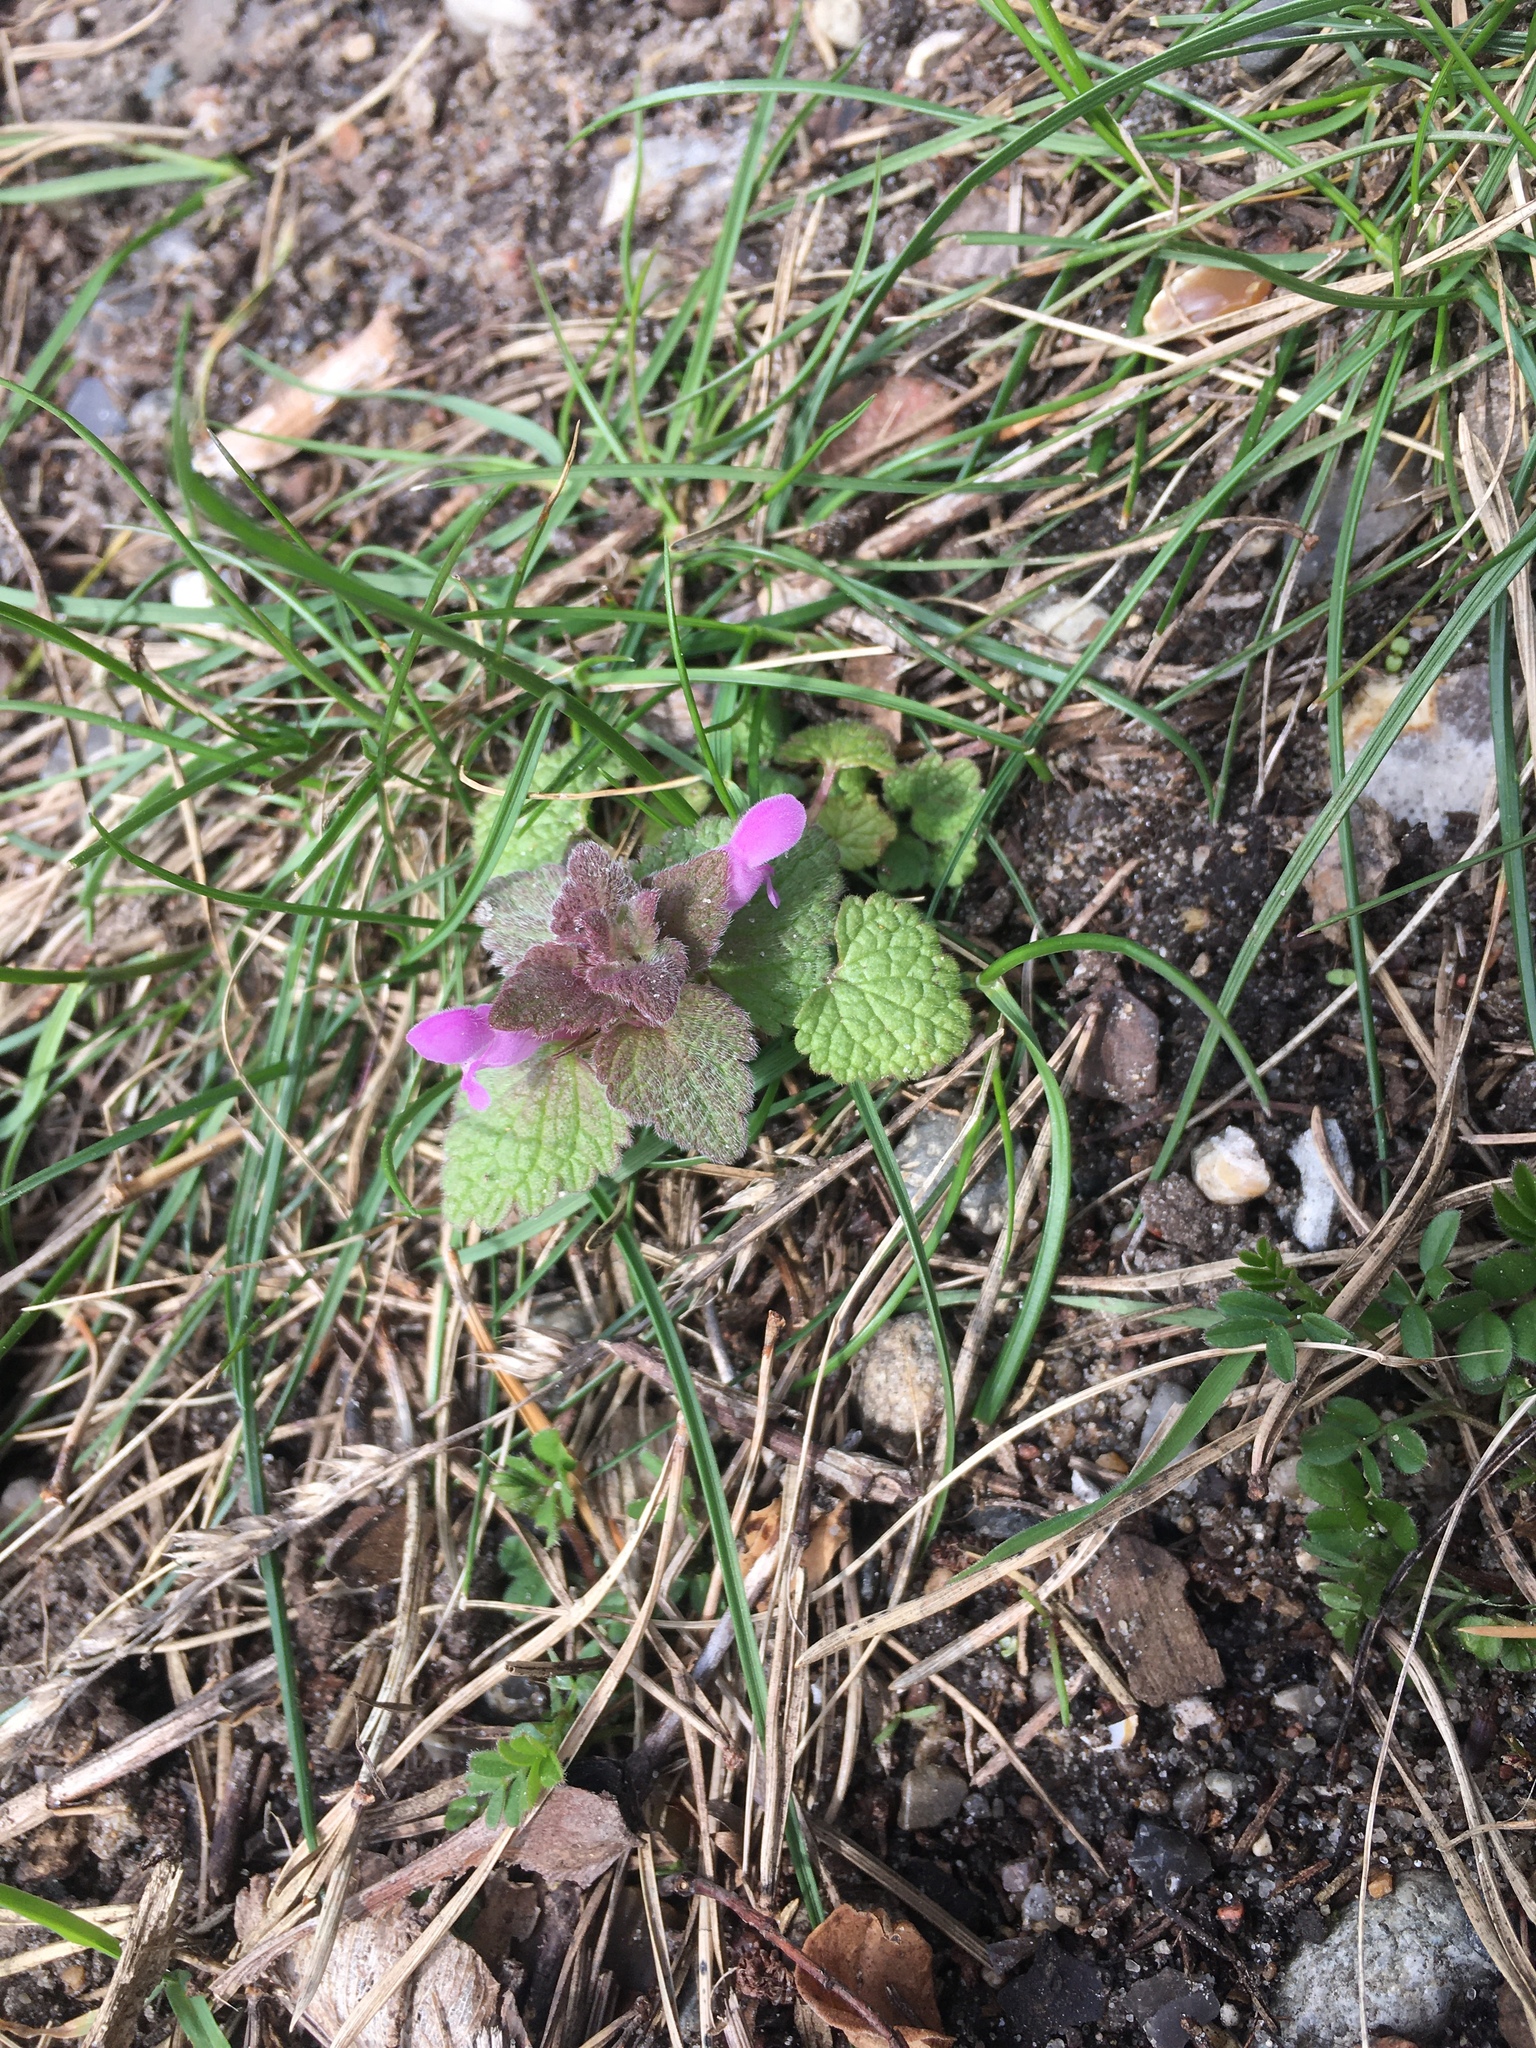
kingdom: Plantae
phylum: Tracheophyta
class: Magnoliopsida
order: Lamiales
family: Lamiaceae
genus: Lamium
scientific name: Lamium purpureum
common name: Red dead-nettle
